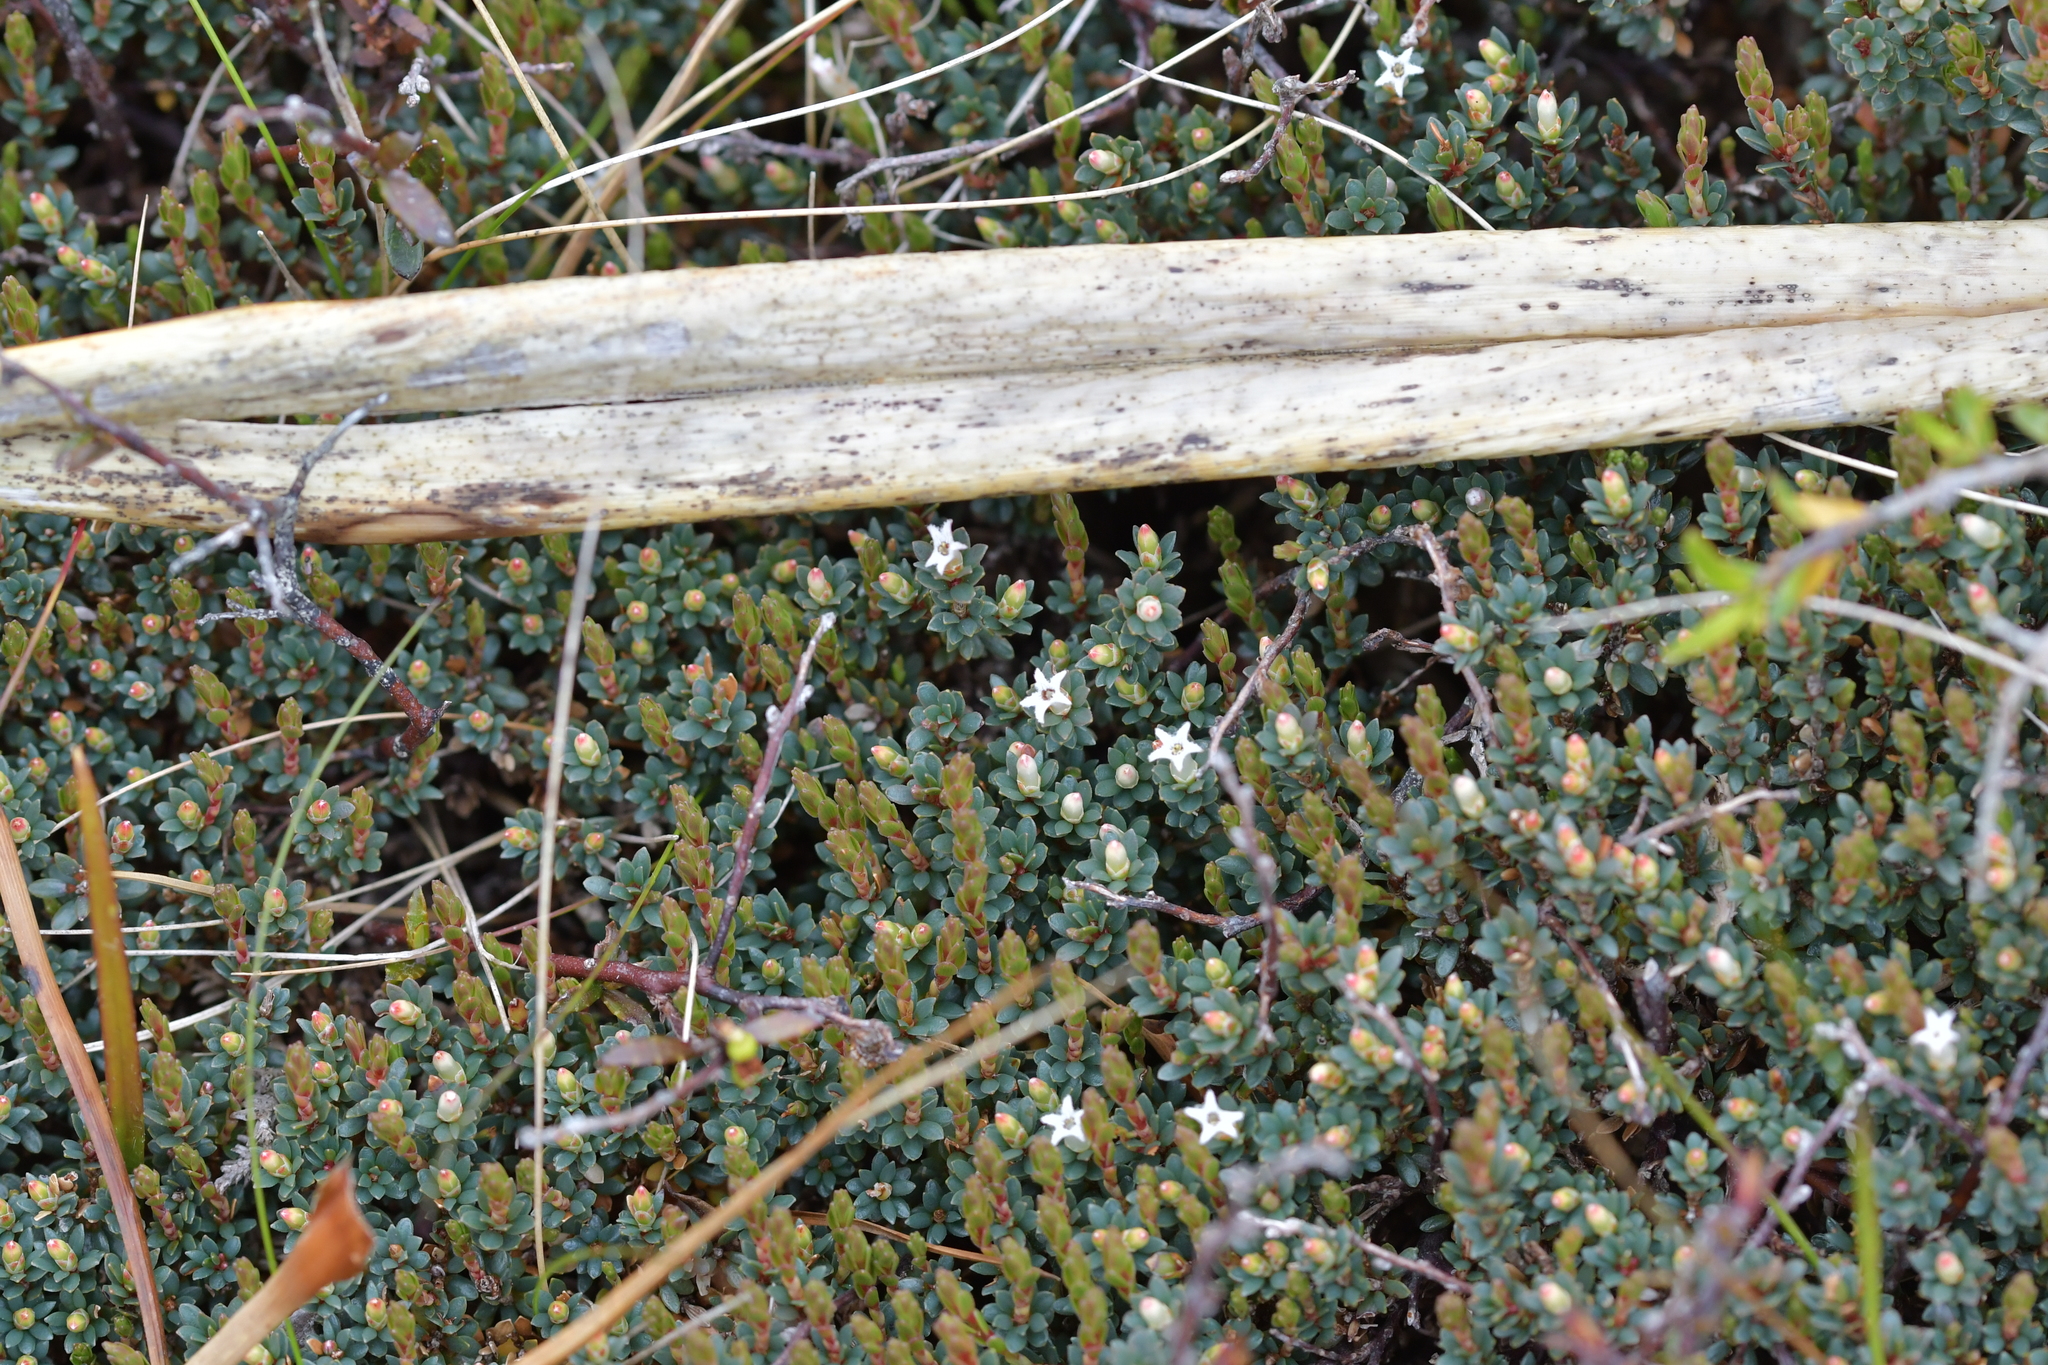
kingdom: Plantae
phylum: Tracheophyta
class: Magnoliopsida
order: Ericales
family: Ericaceae
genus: Pentachondra
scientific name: Pentachondra pumila
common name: Carpet-heath
